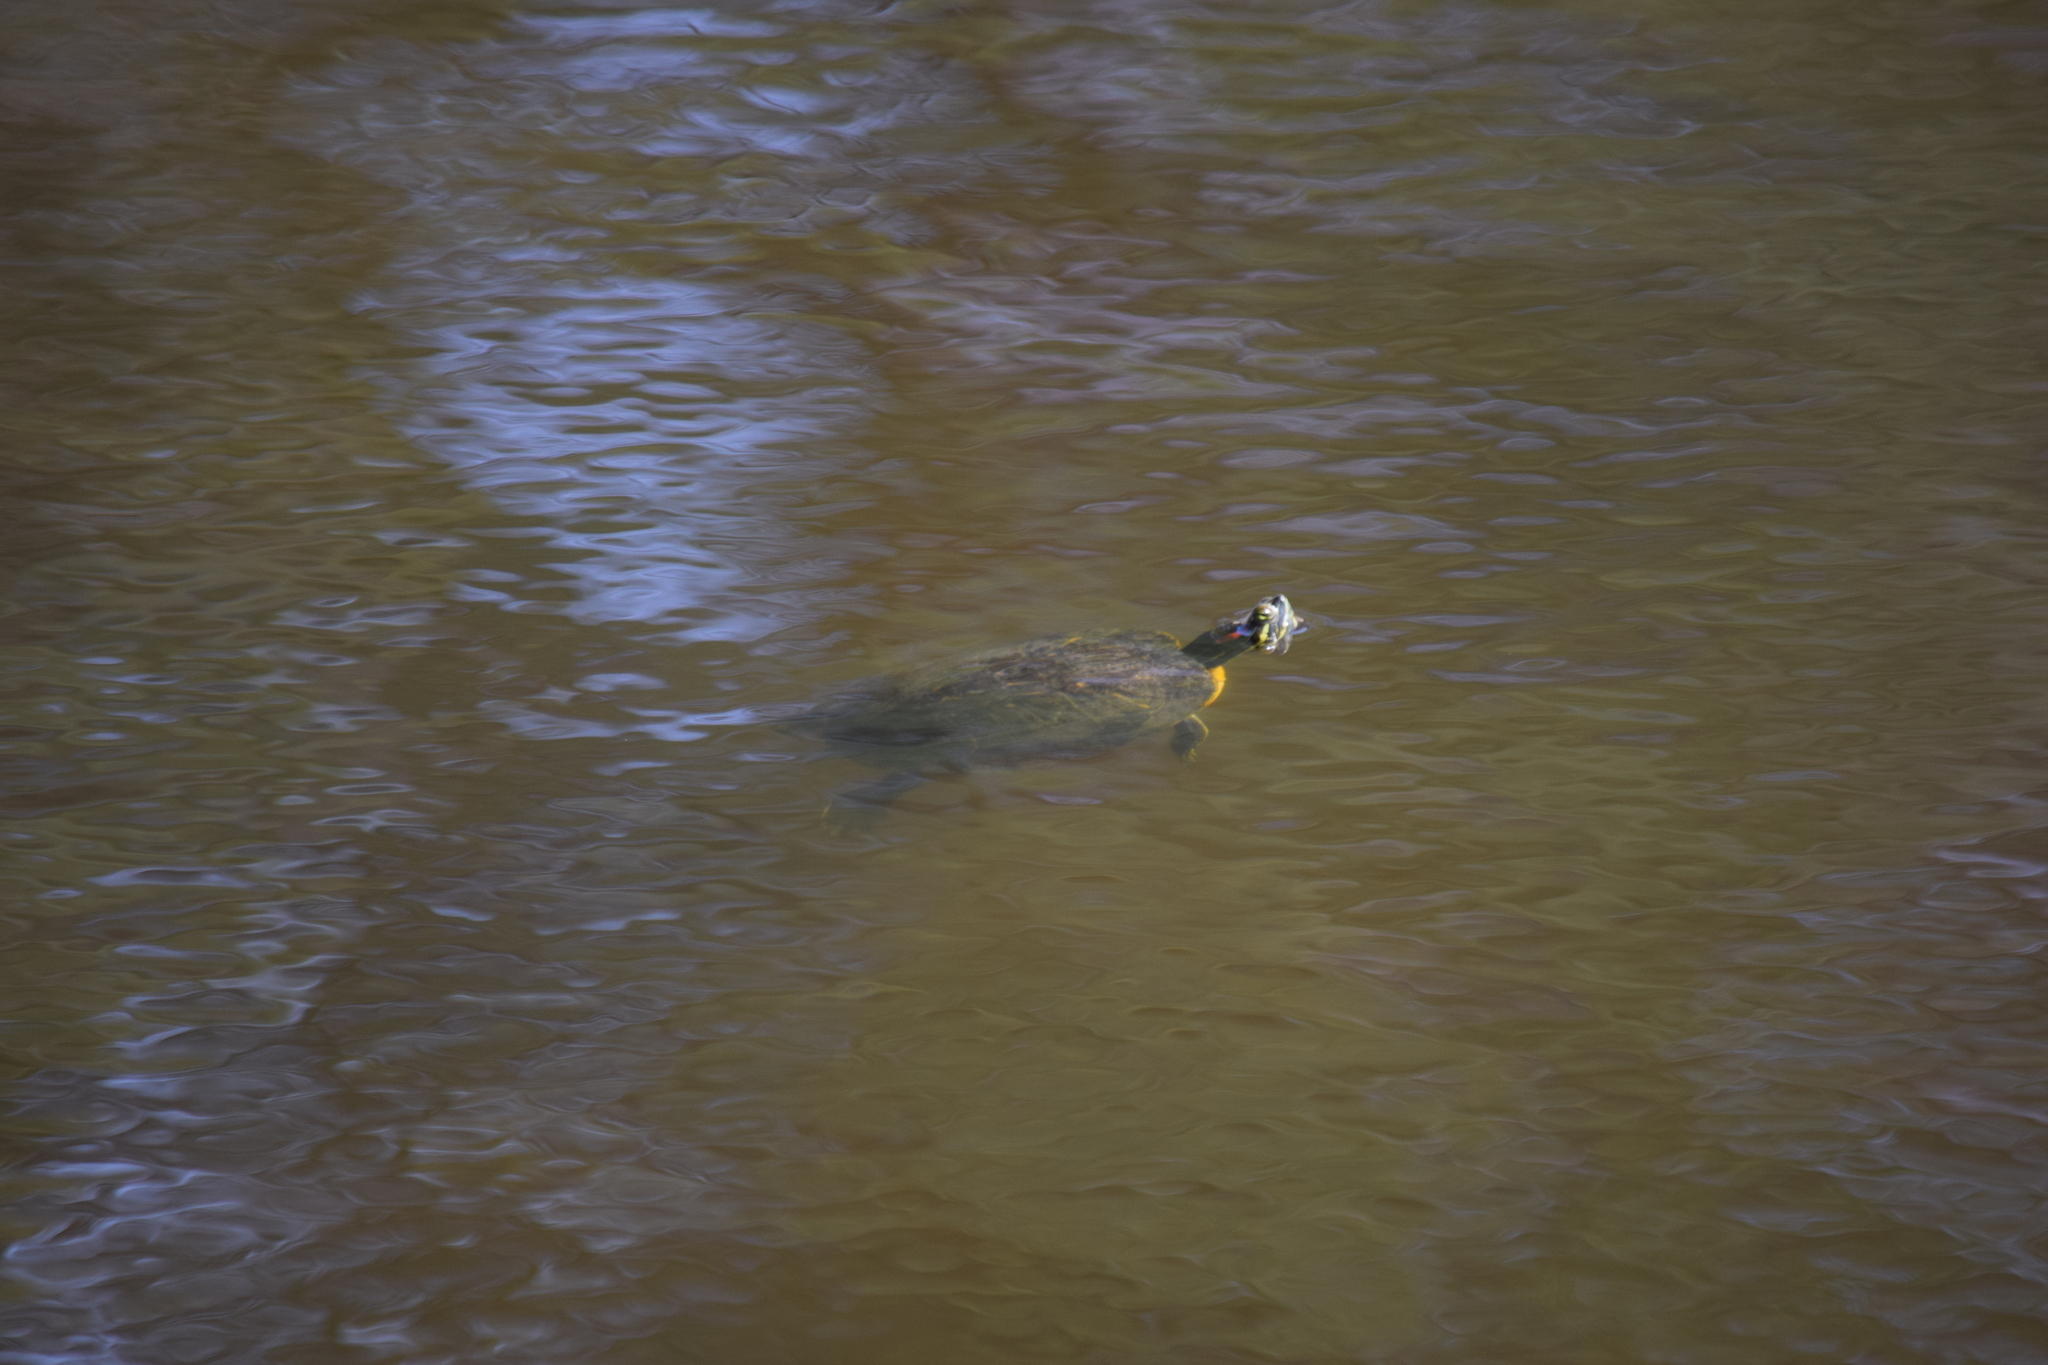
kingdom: Animalia
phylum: Chordata
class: Testudines
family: Emydidae
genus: Trachemys
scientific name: Trachemys scripta
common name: Slider
